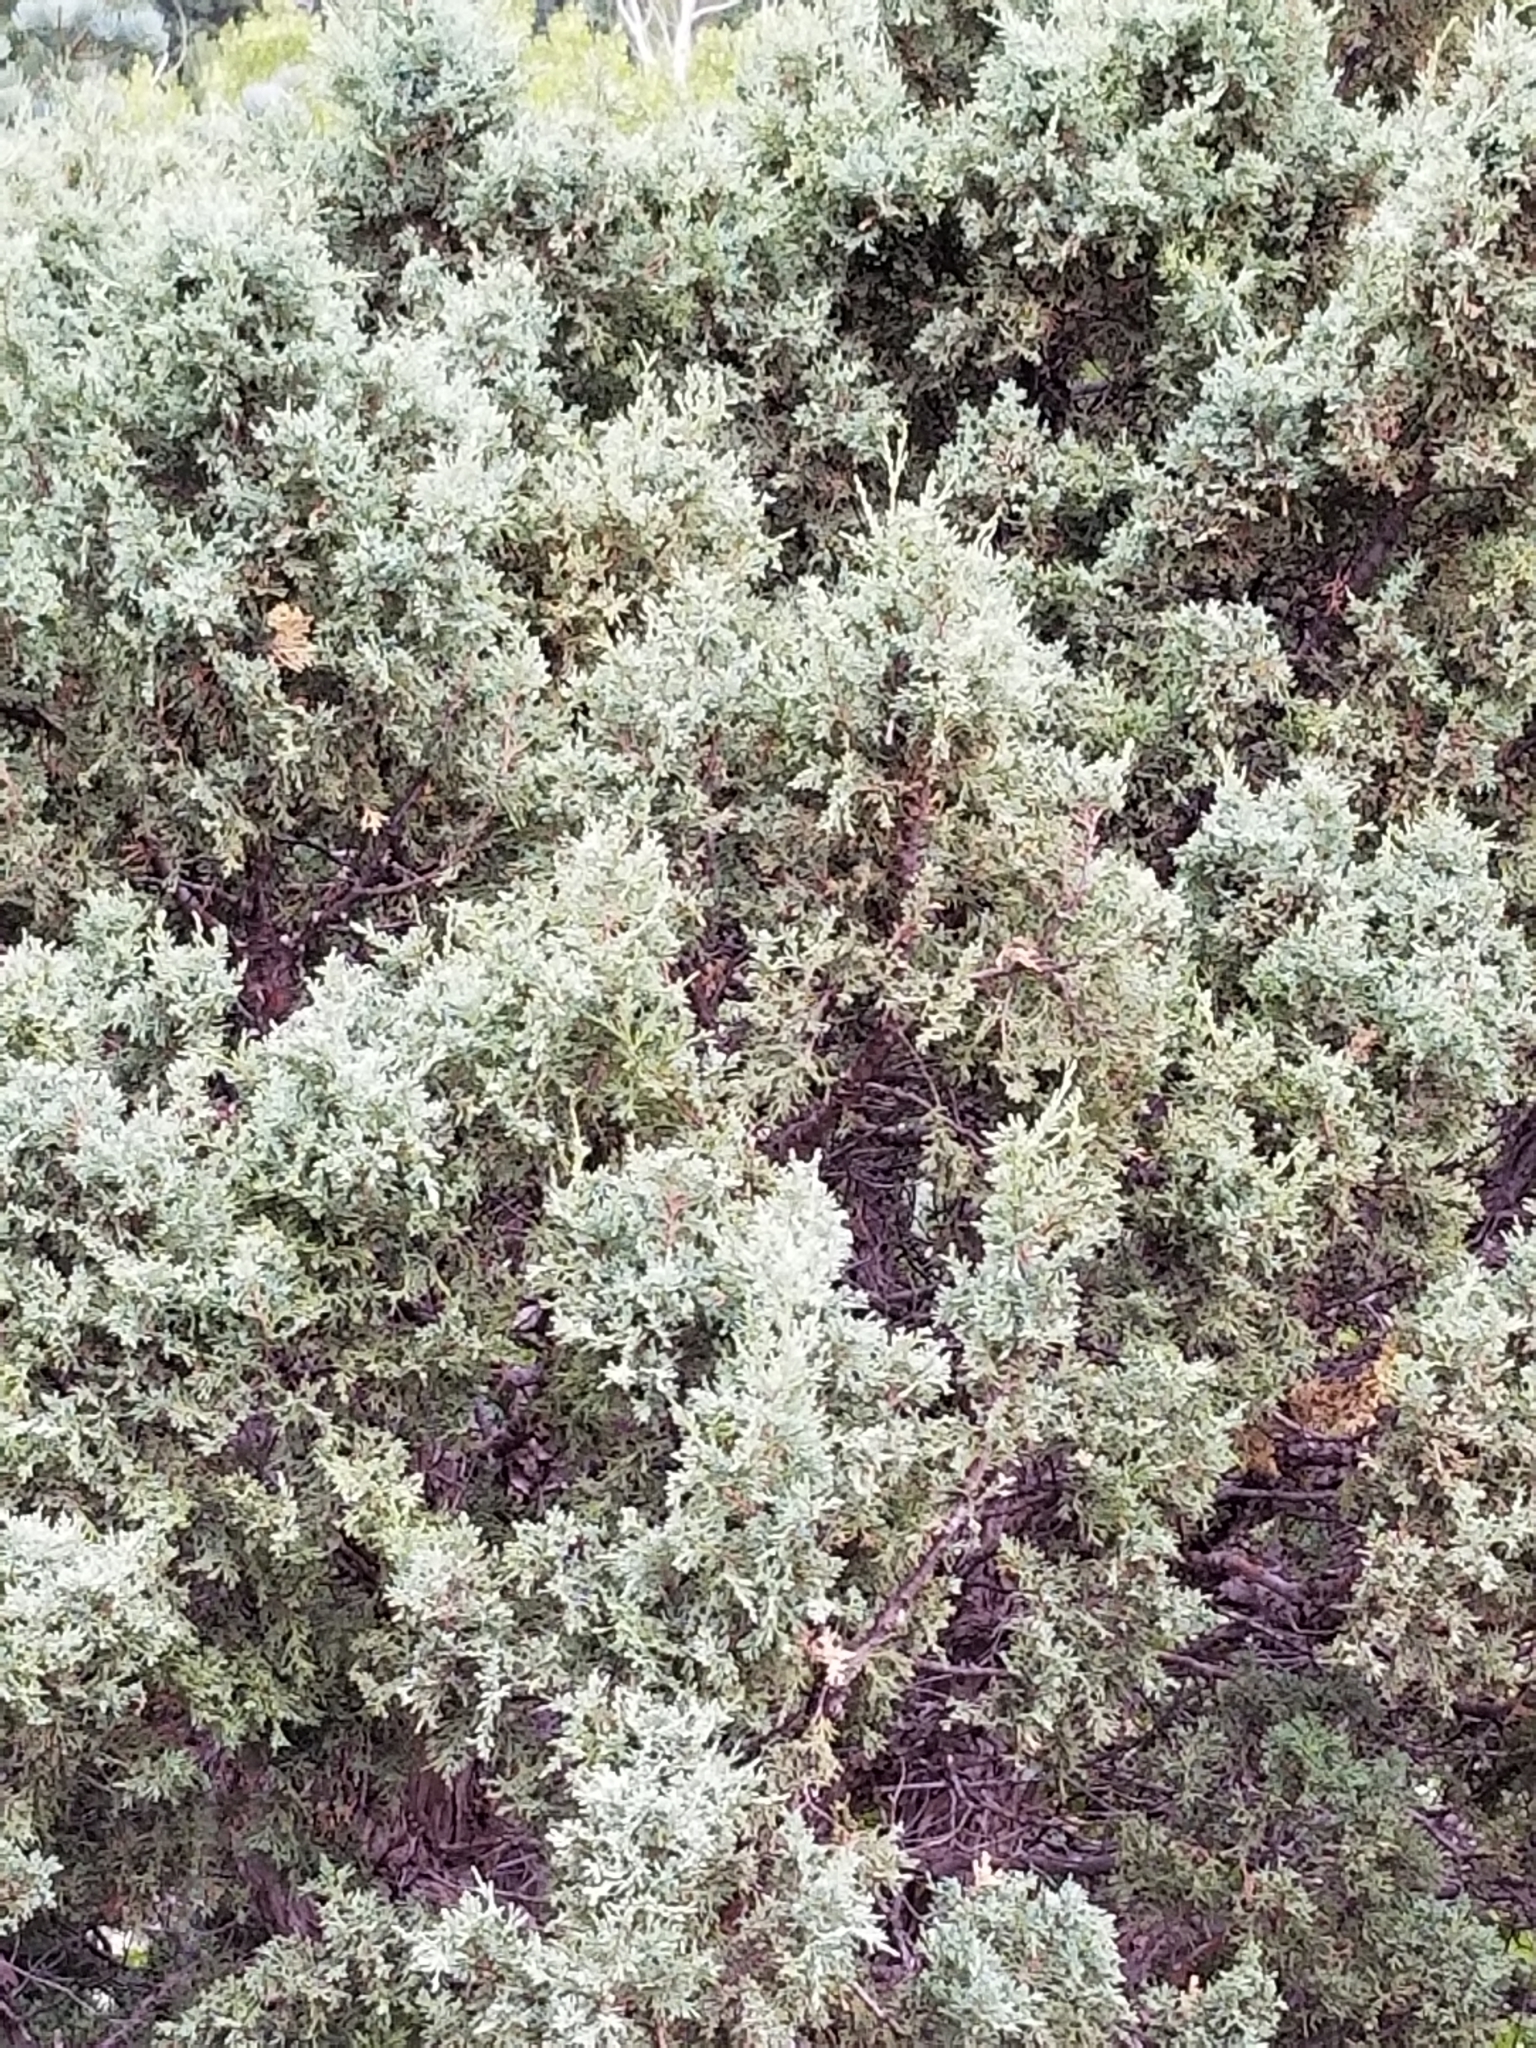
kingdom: Plantae
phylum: Tracheophyta
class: Pinopsida
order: Pinales
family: Cupressaceae
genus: Juniperus
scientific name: Juniperus scopulorum
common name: Rocky mountain juniper
